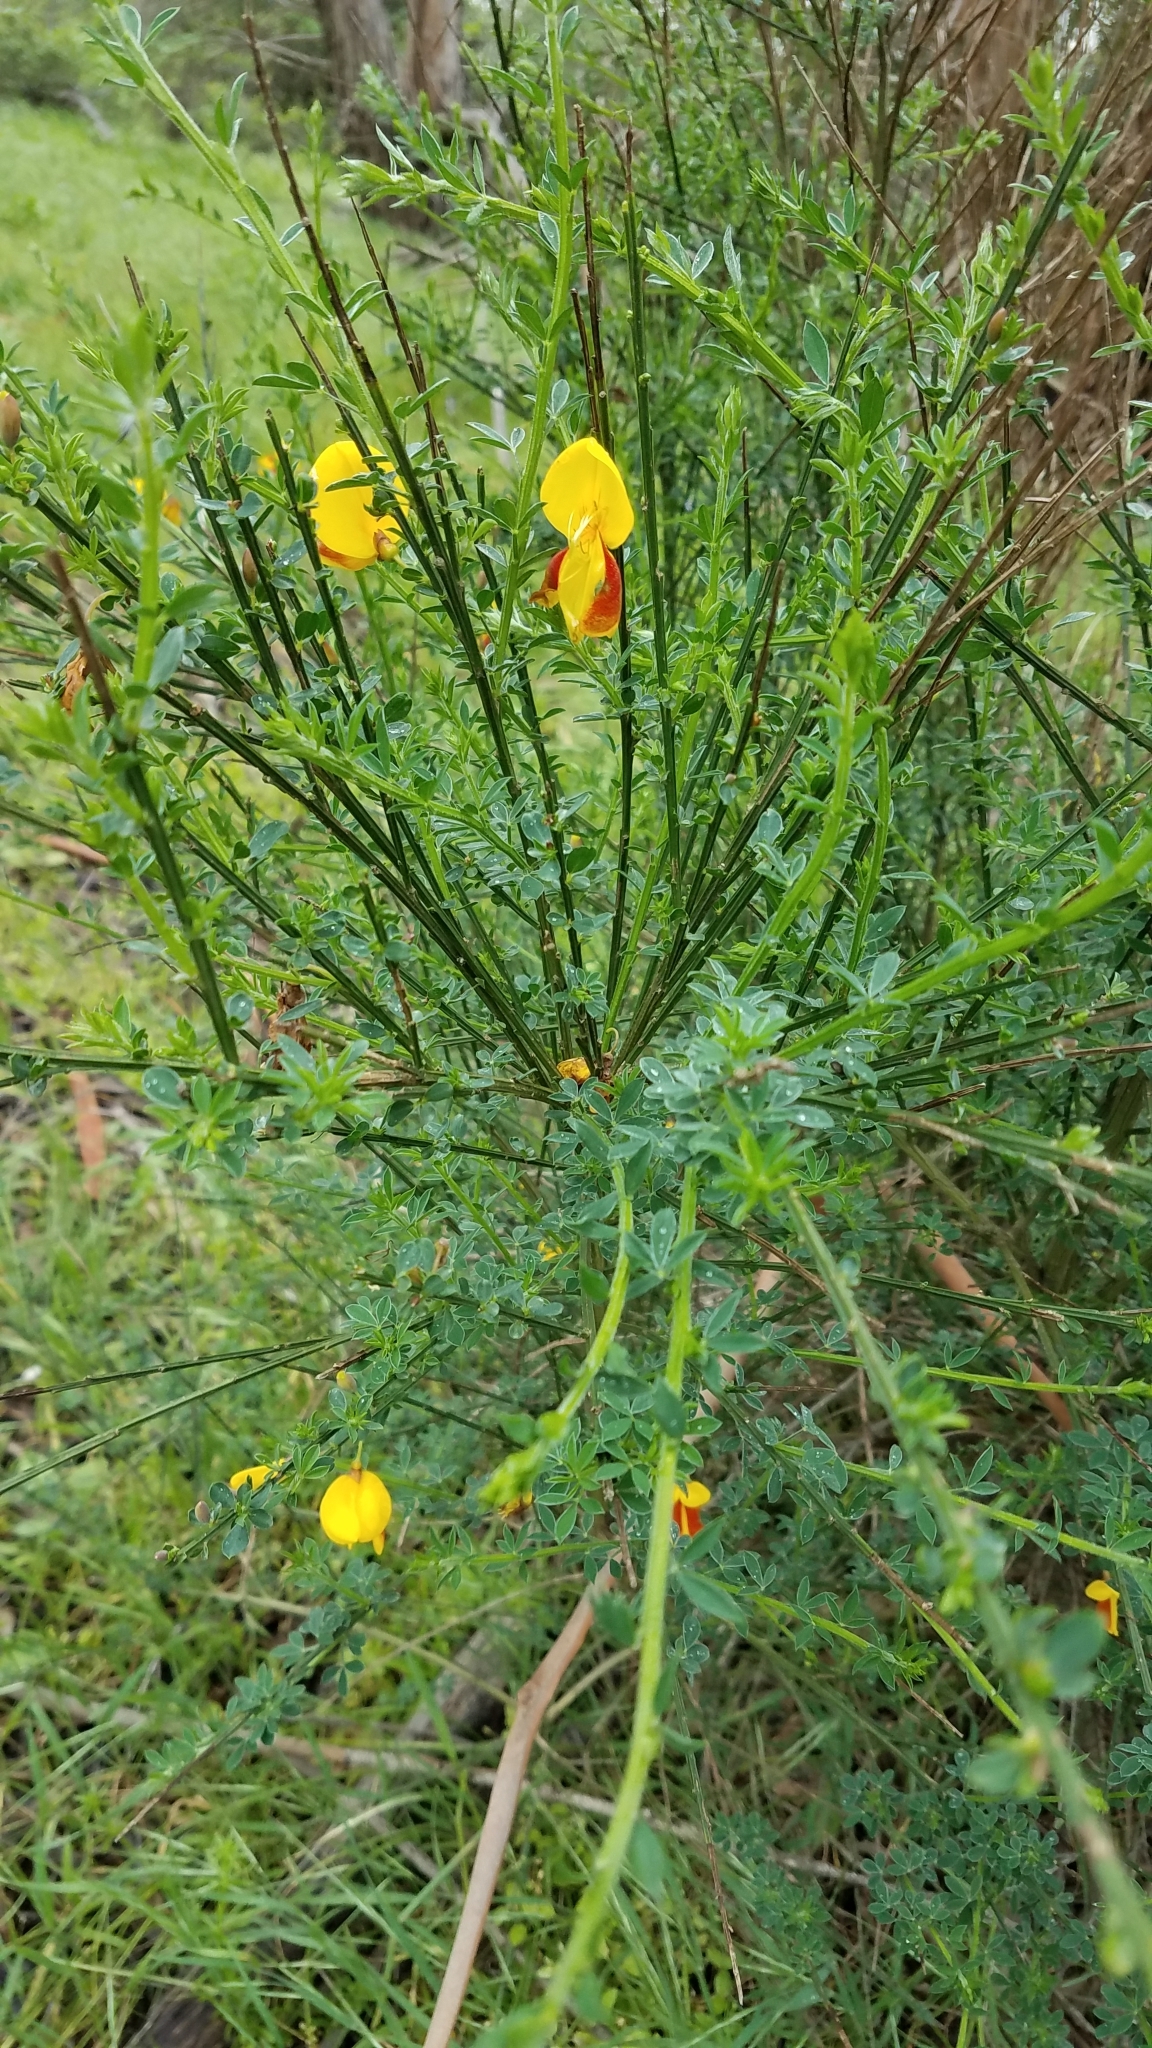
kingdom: Plantae
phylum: Tracheophyta
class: Magnoliopsida
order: Fabales
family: Fabaceae
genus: Cytisus
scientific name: Cytisus scoparius
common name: Scotch broom
